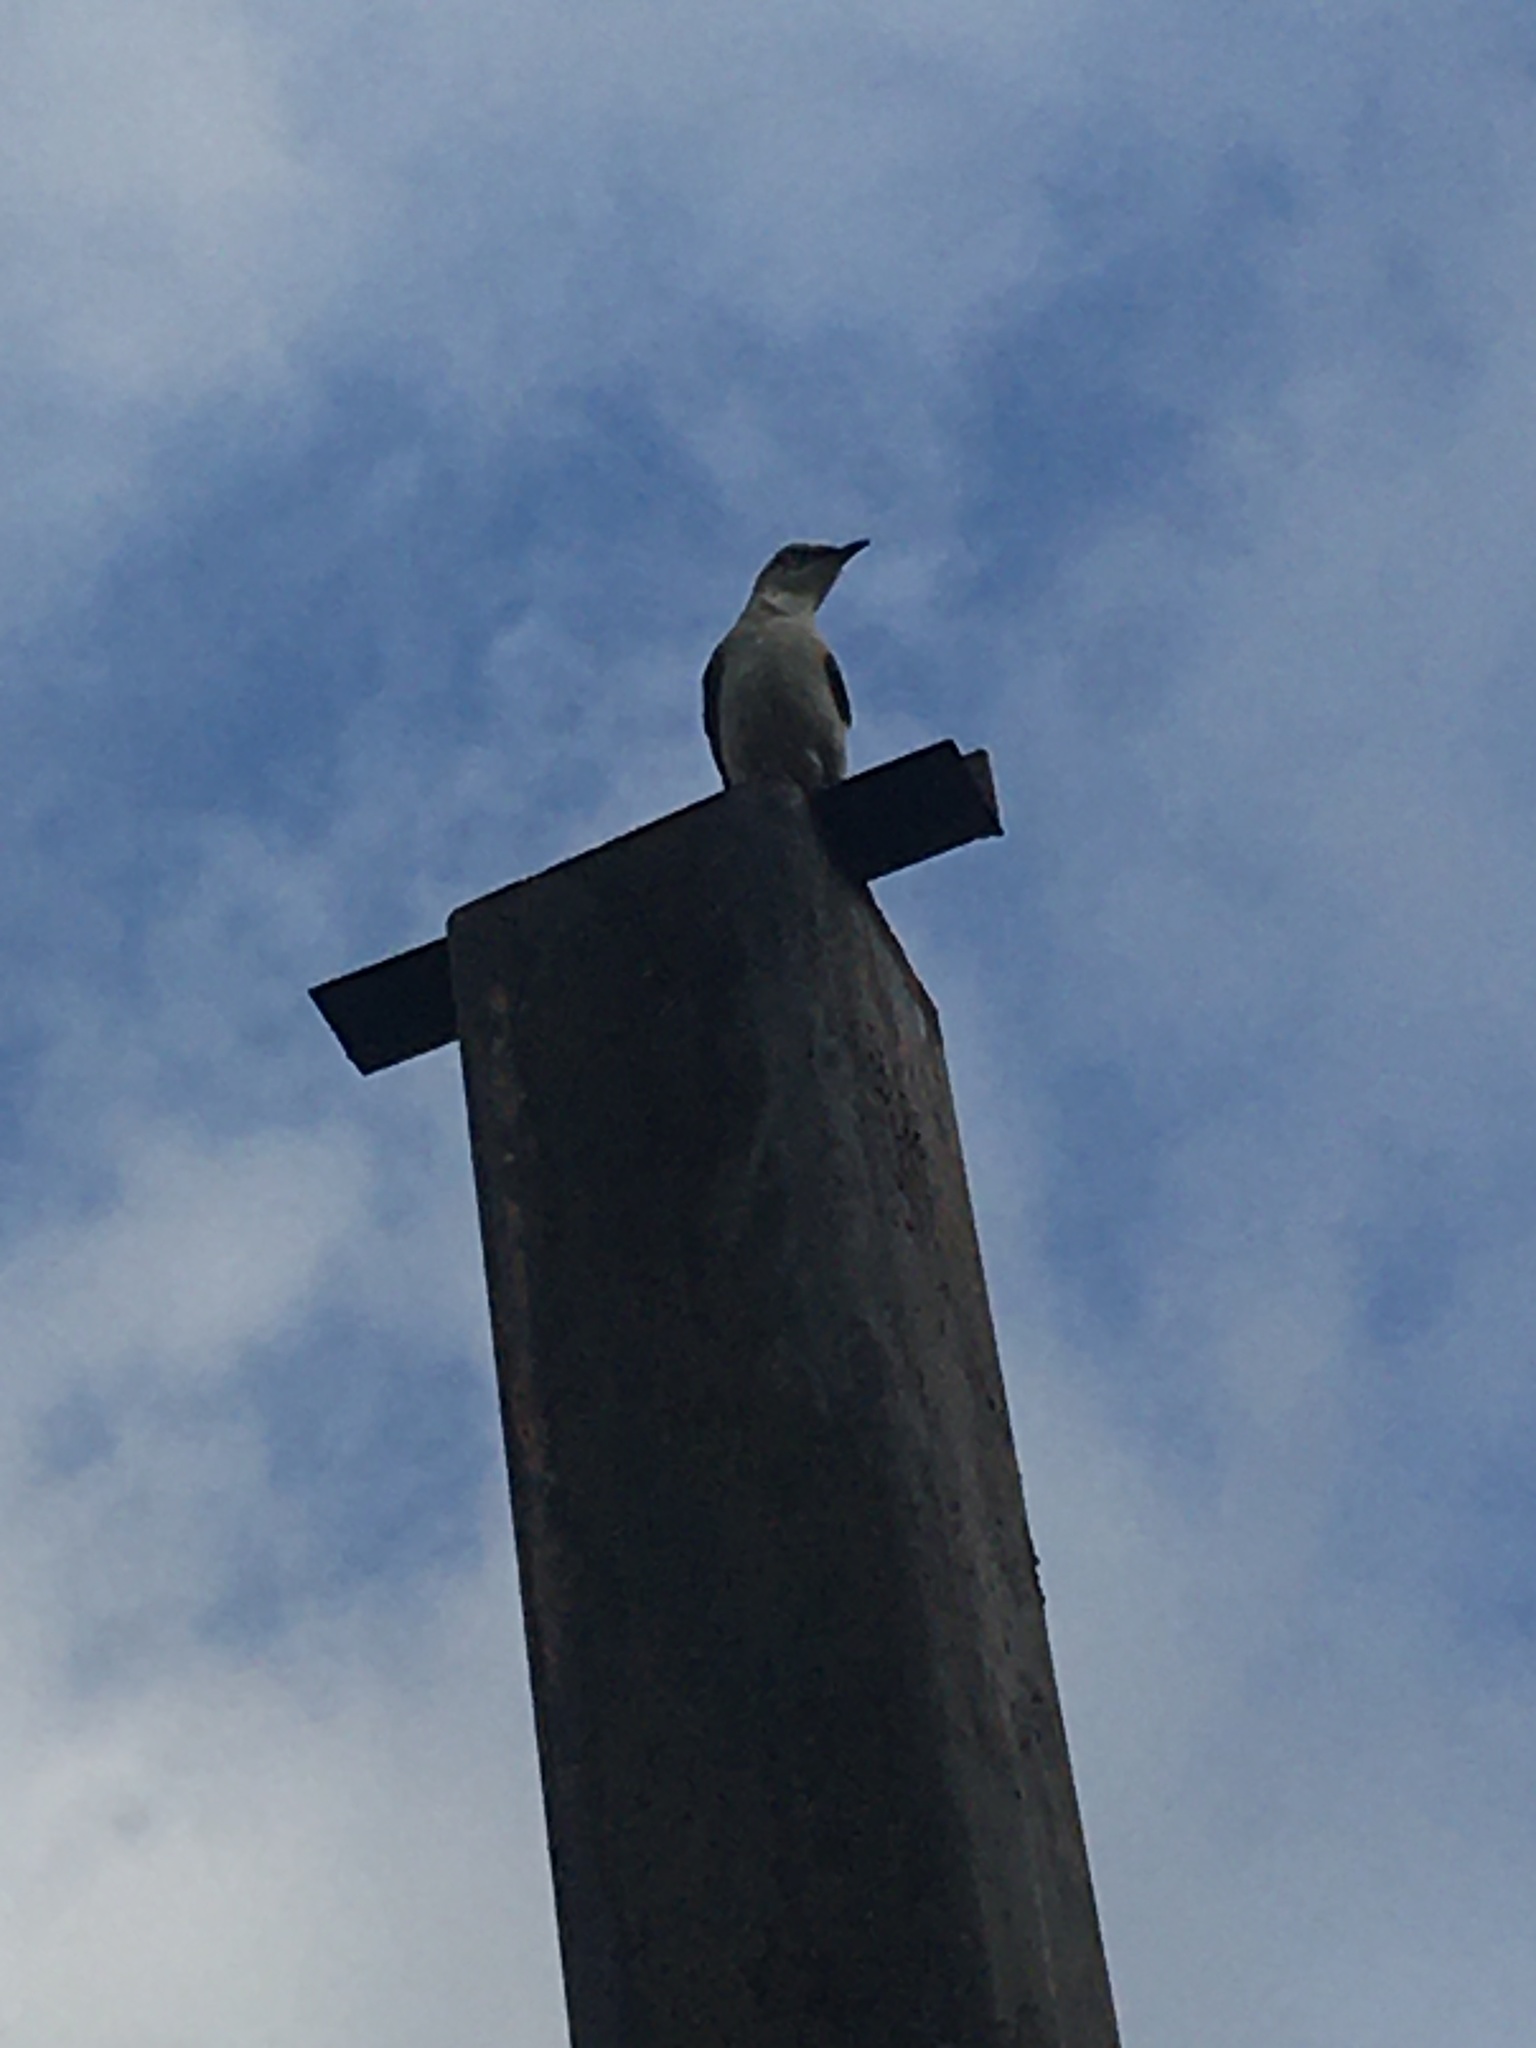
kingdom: Animalia
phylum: Chordata
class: Aves
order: Passeriformes
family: Mimidae
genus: Mimus
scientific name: Mimus gilvus
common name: Tropical mockingbird
